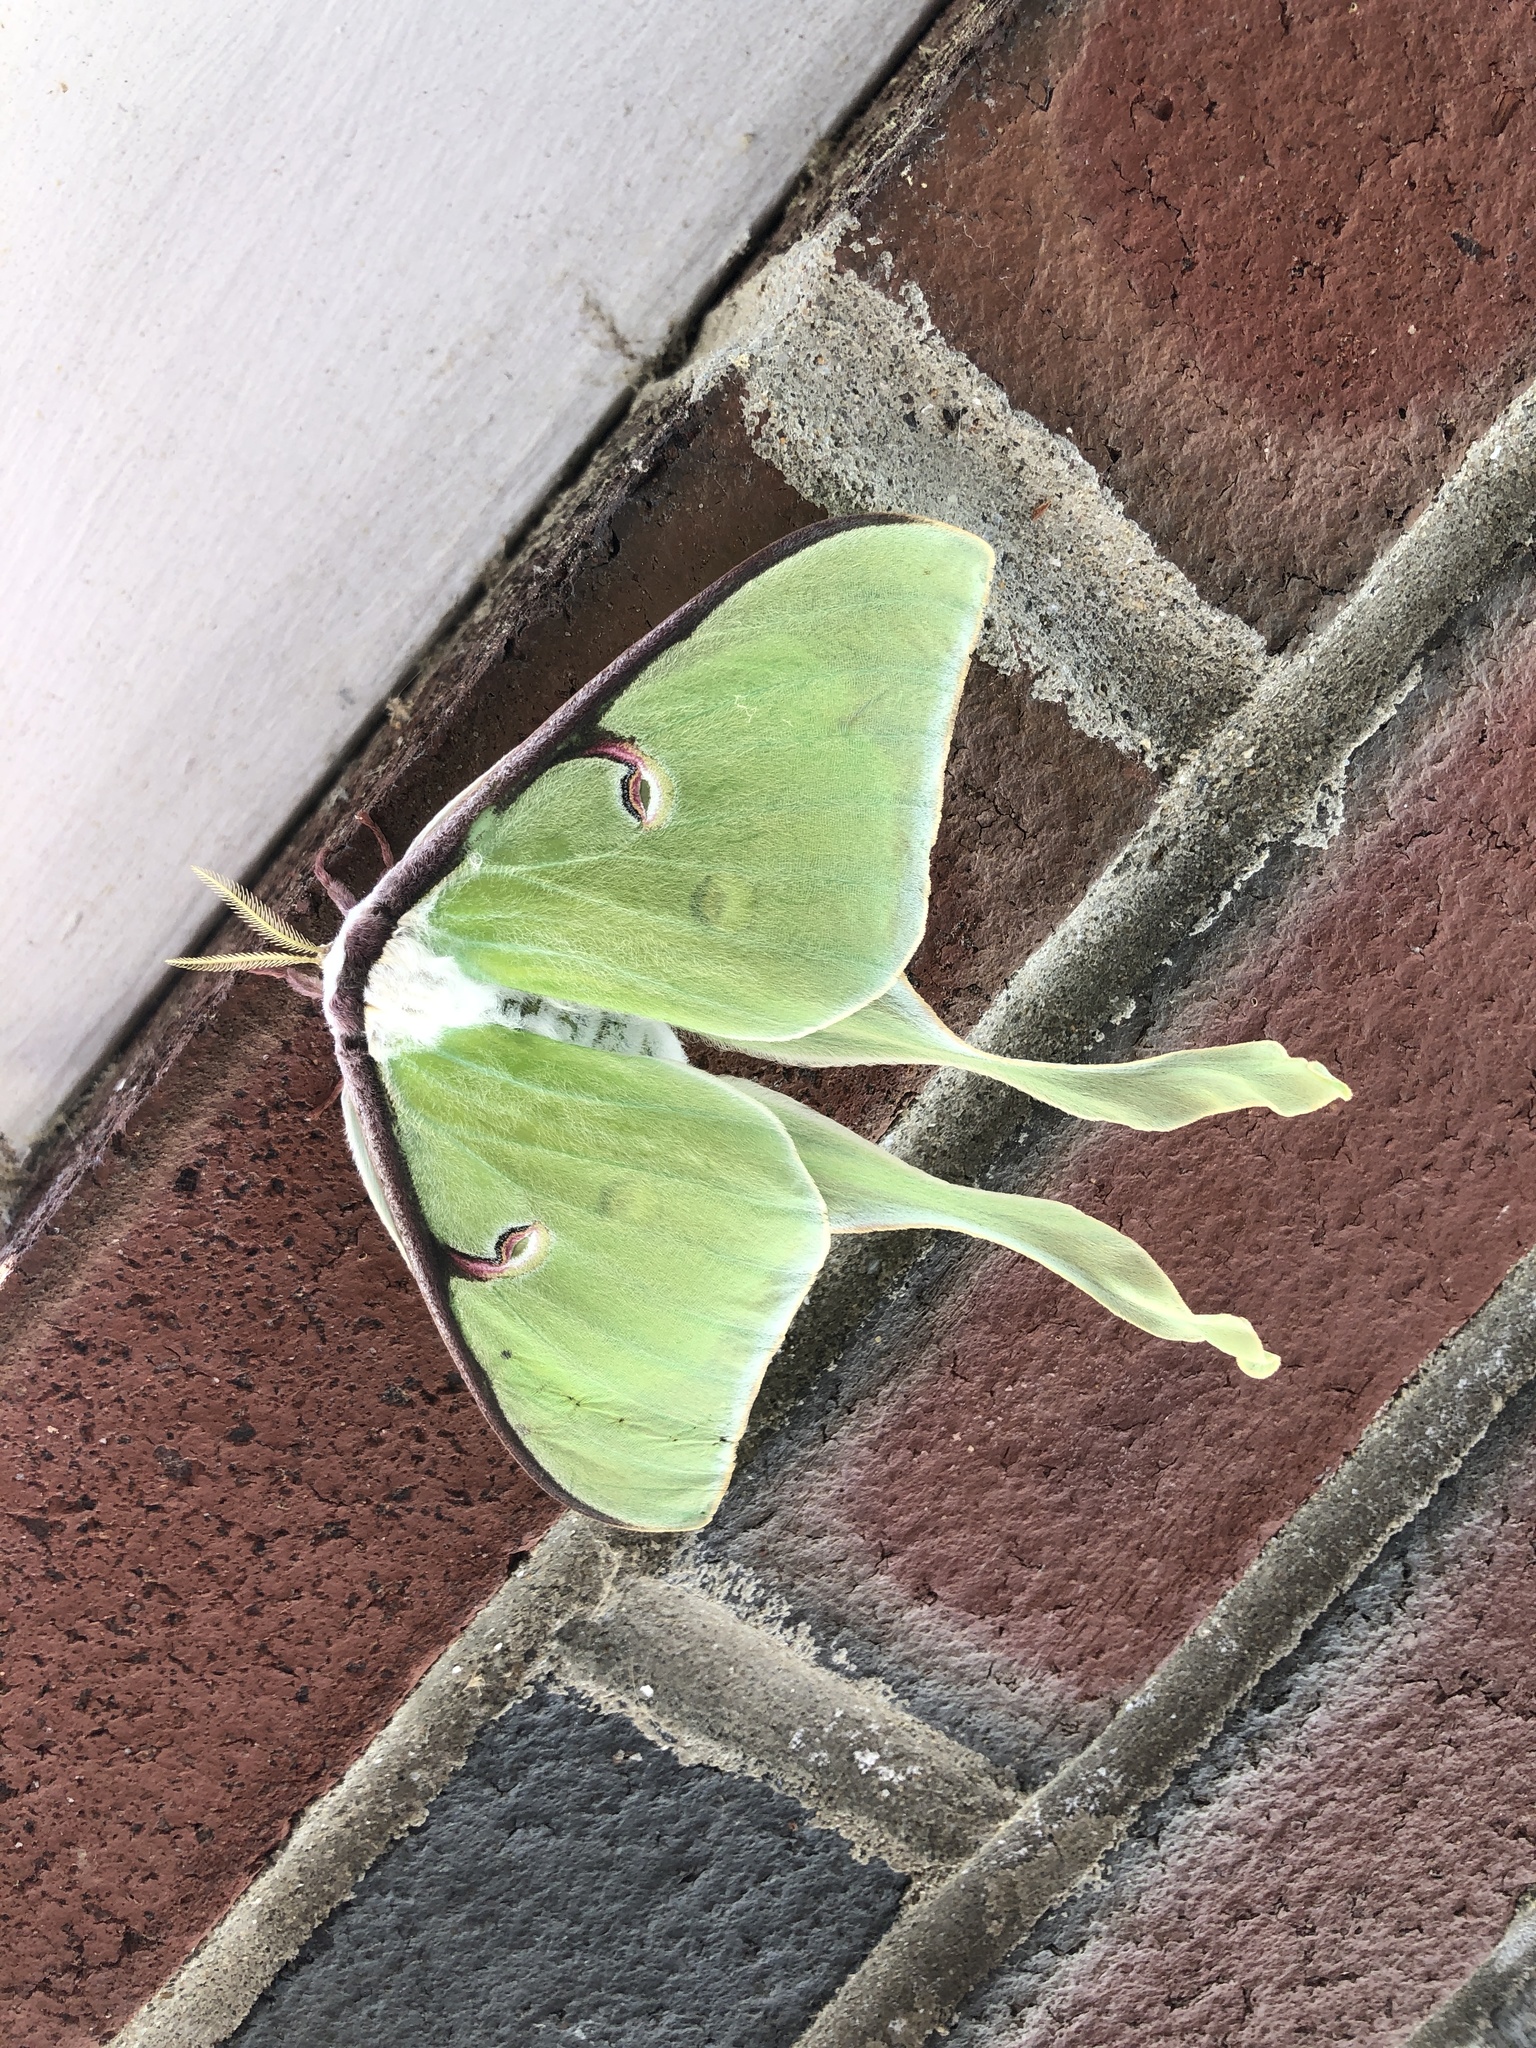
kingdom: Animalia
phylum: Arthropoda
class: Insecta
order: Lepidoptera
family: Saturniidae
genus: Actias
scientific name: Actias luna
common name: Luna moth
